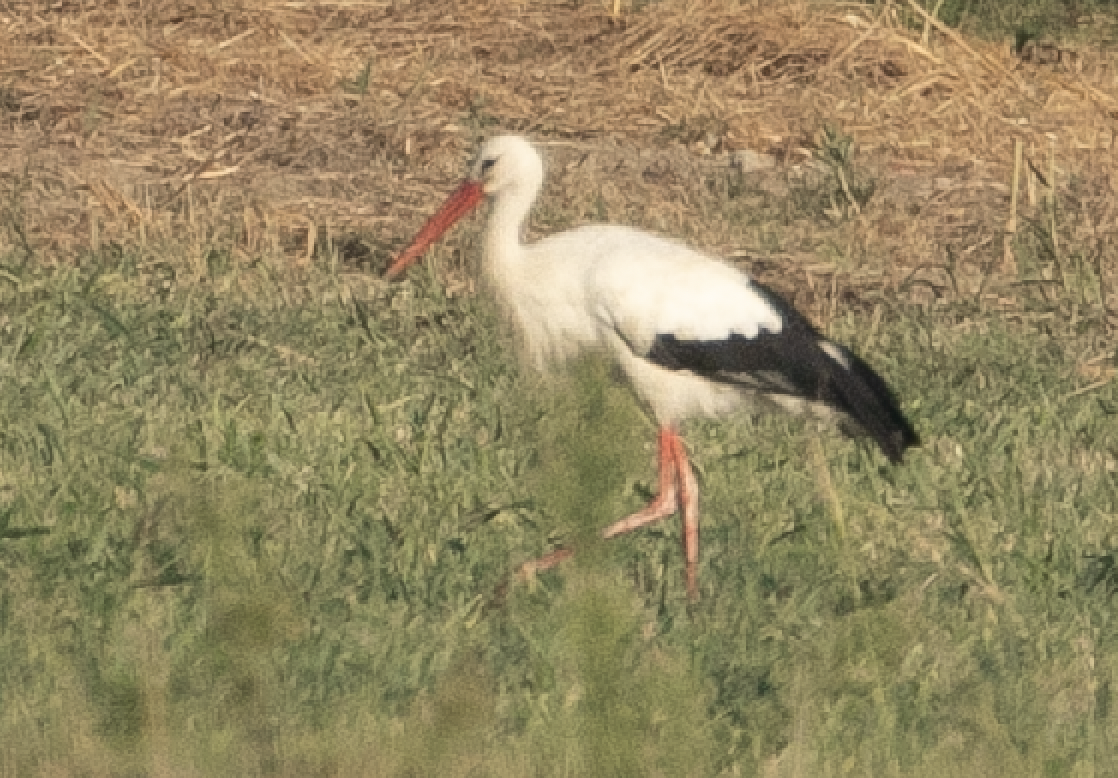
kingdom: Animalia
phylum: Chordata
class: Aves
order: Ciconiiformes
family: Ciconiidae
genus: Ciconia
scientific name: Ciconia ciconia
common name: White stork
